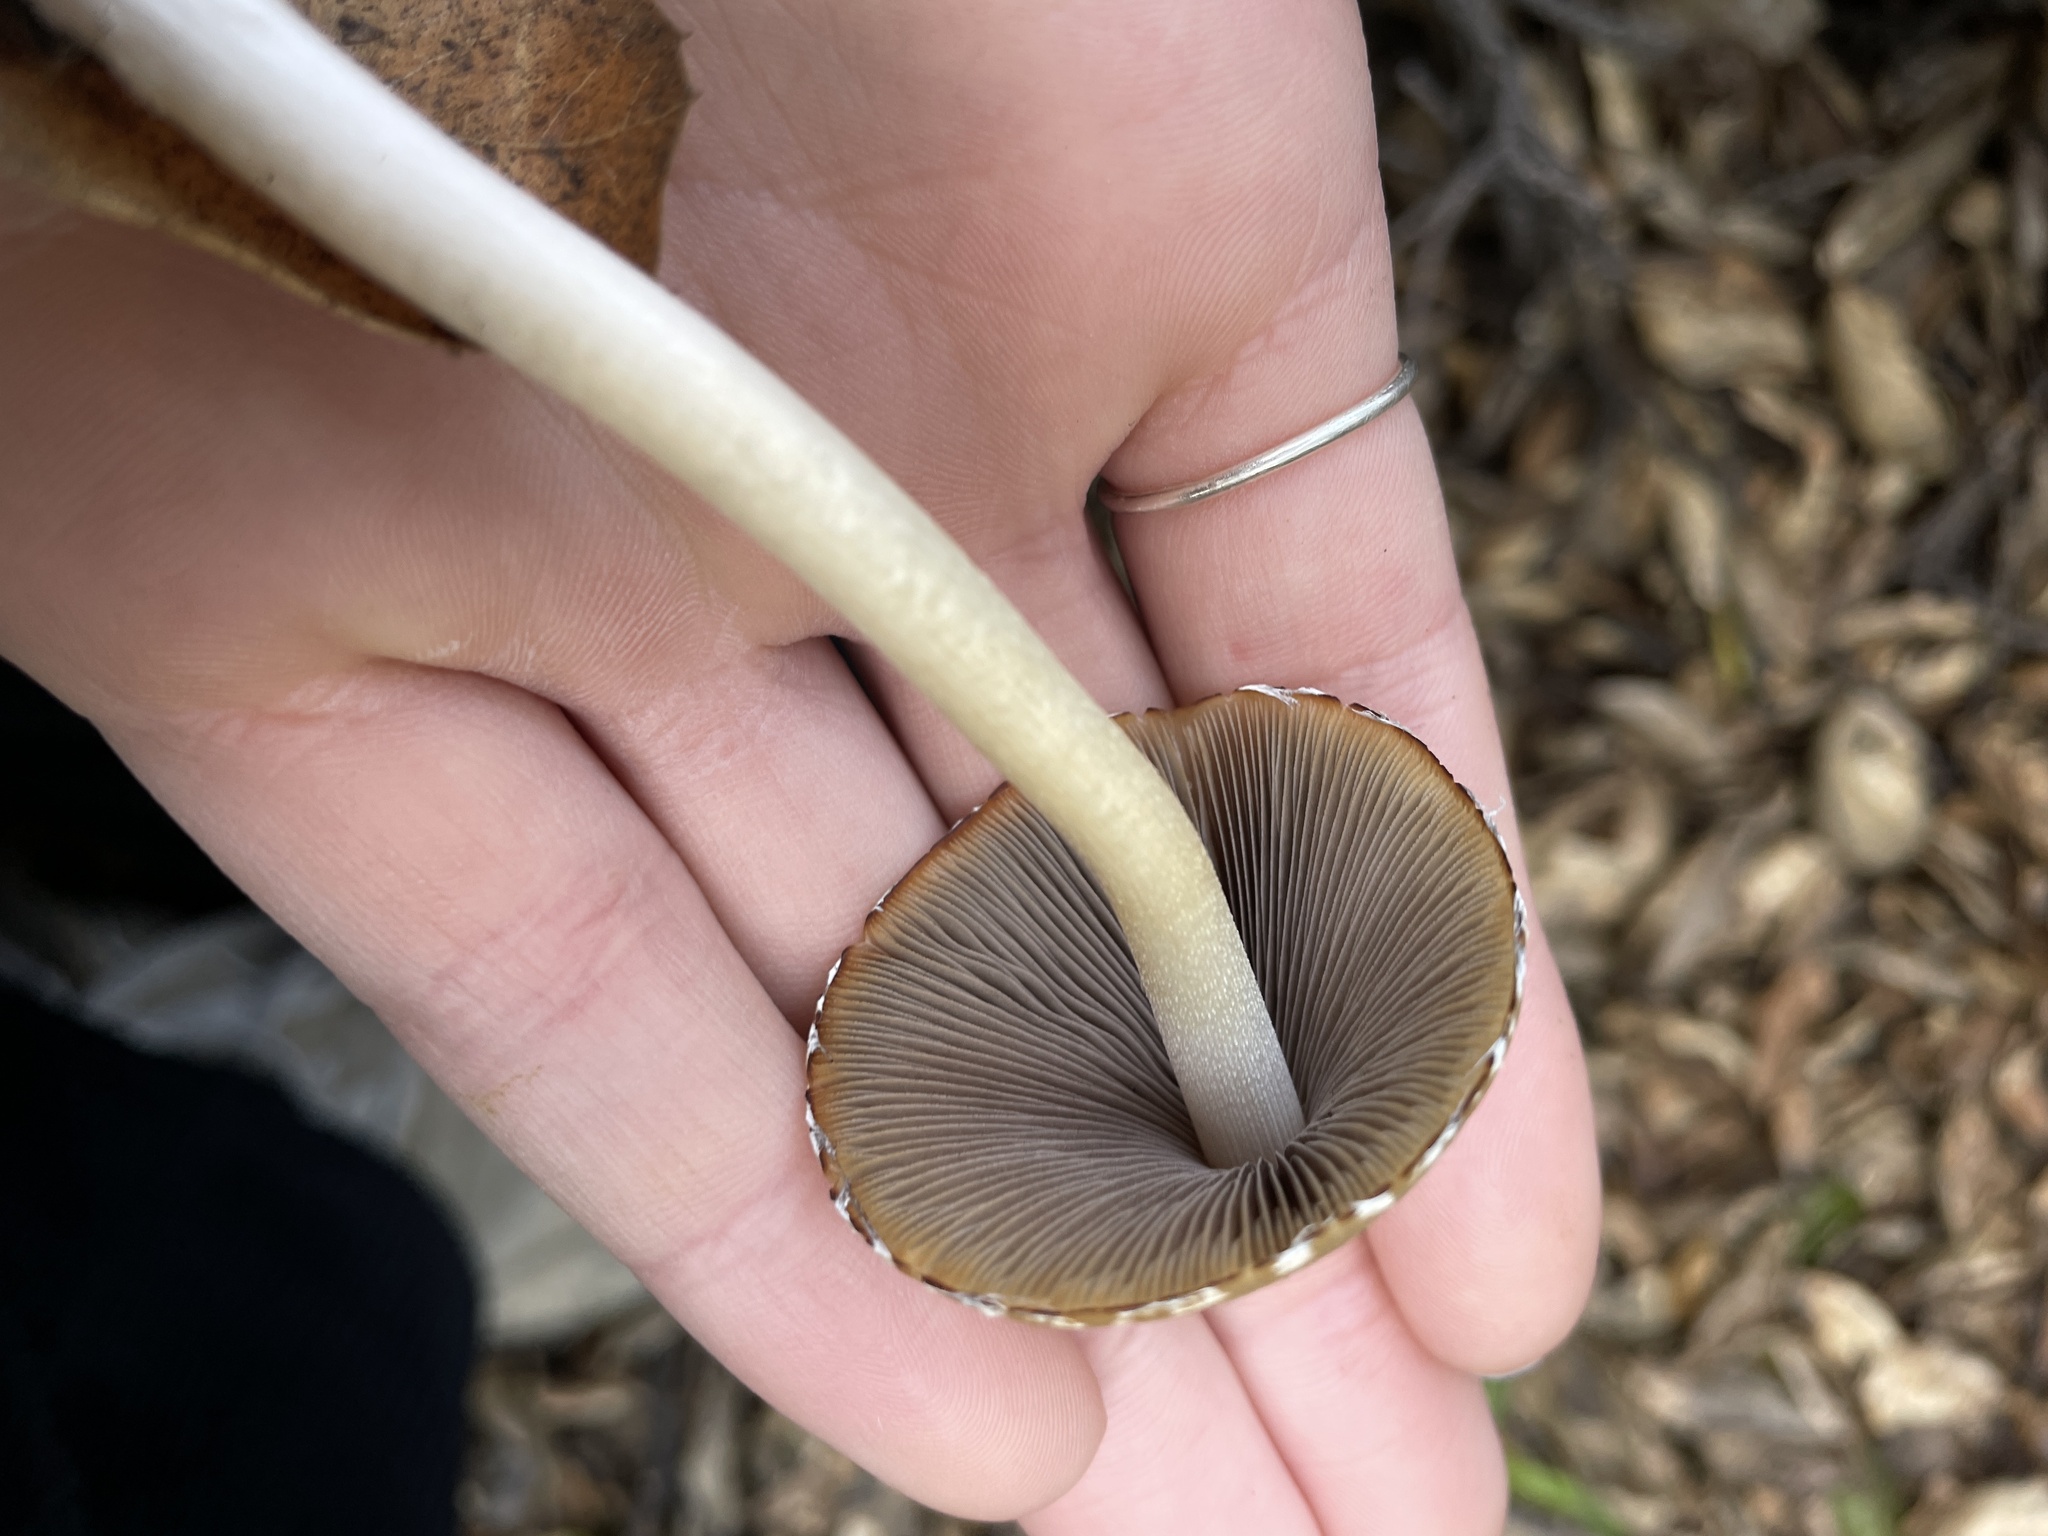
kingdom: Fungi
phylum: Basidiomycota
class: Agaricomycetes
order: Agaricales
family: Psathyrellaceae
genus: Psathyrella
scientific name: Psathyrella longipes
